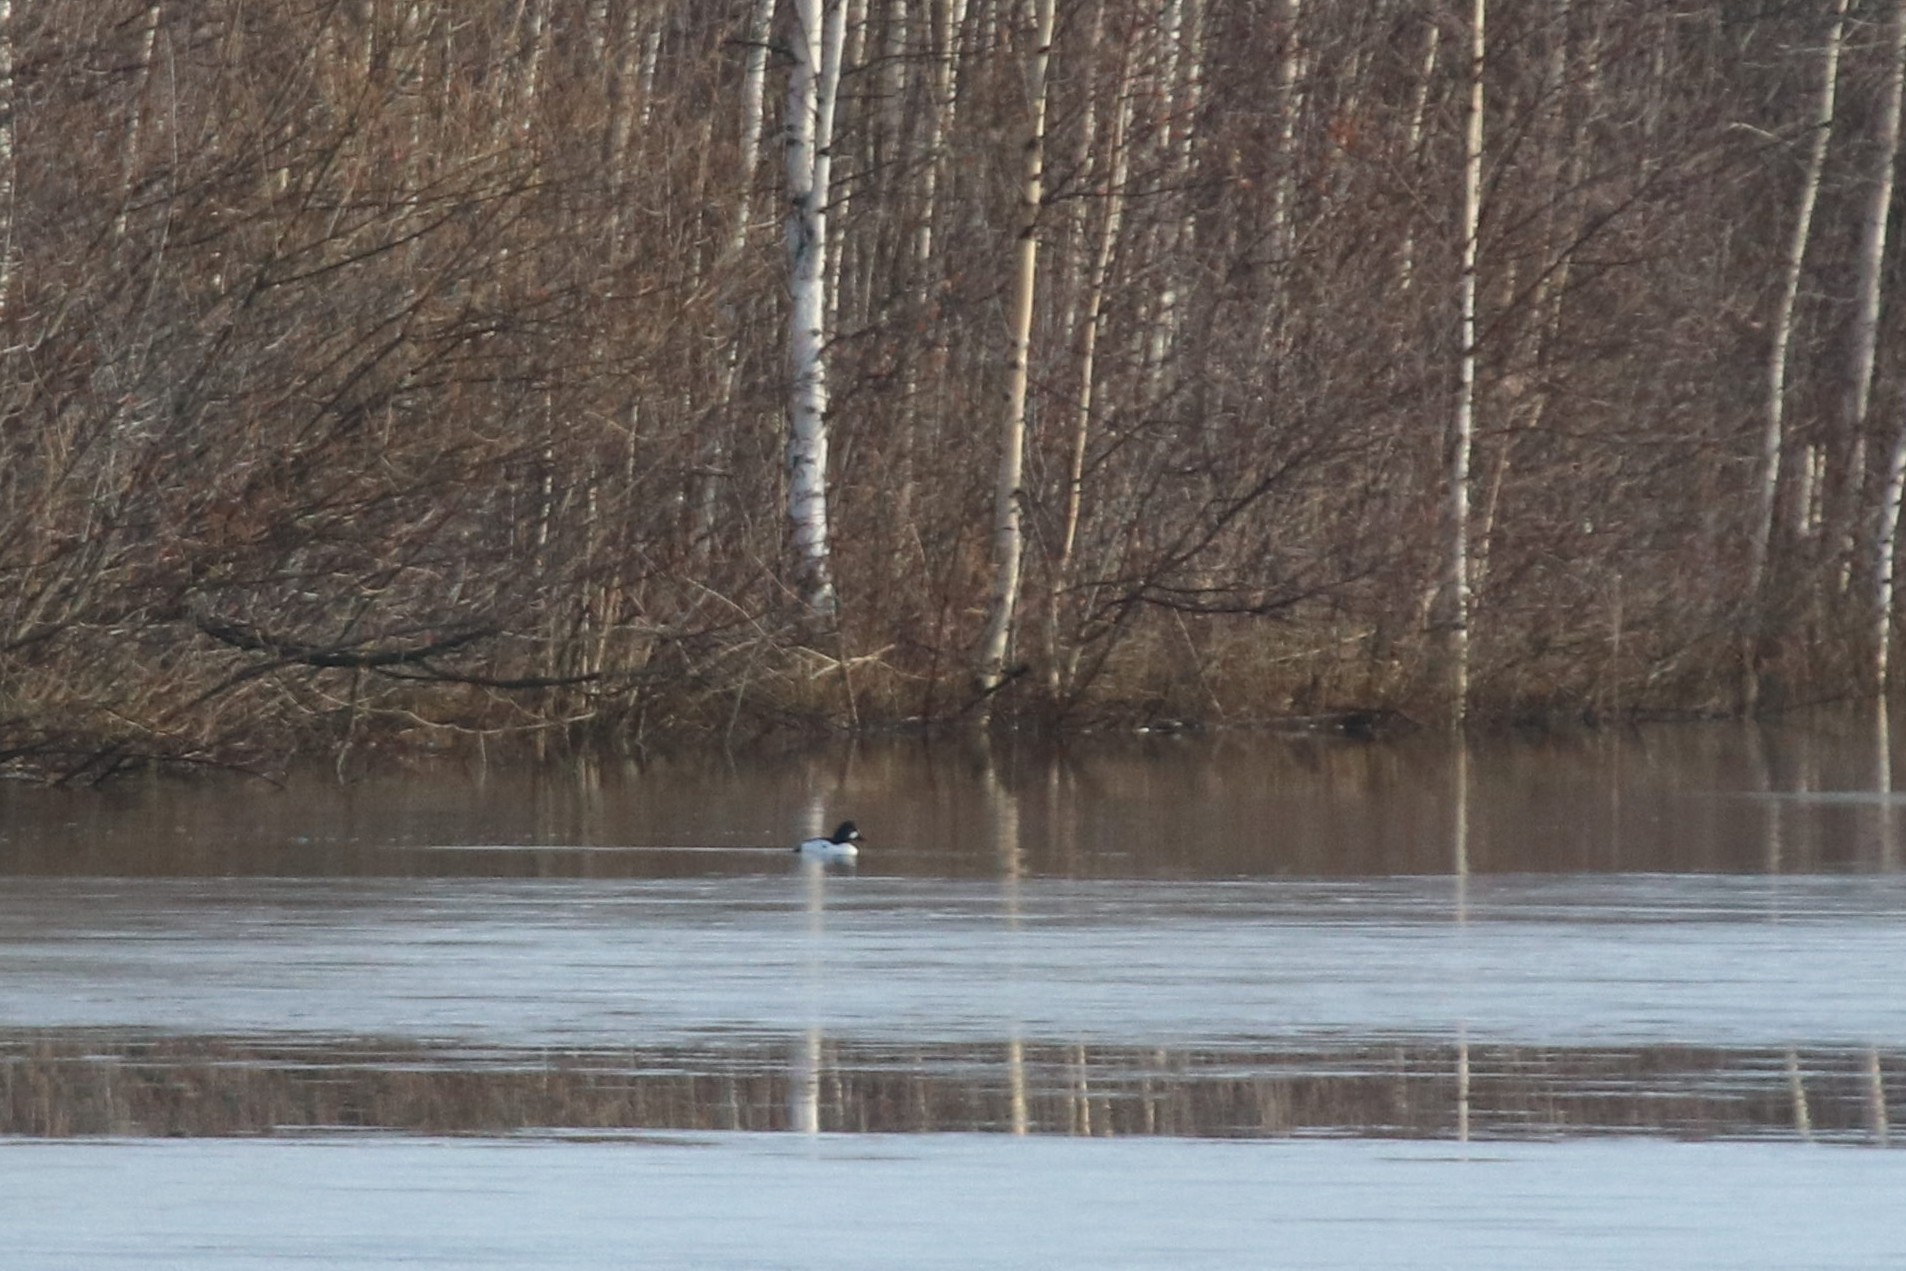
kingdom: Animalia
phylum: Chordata
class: Aves
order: Anseriformes
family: Anatidae
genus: Bucephala
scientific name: Bucephala clangula
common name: Common goldeneye
